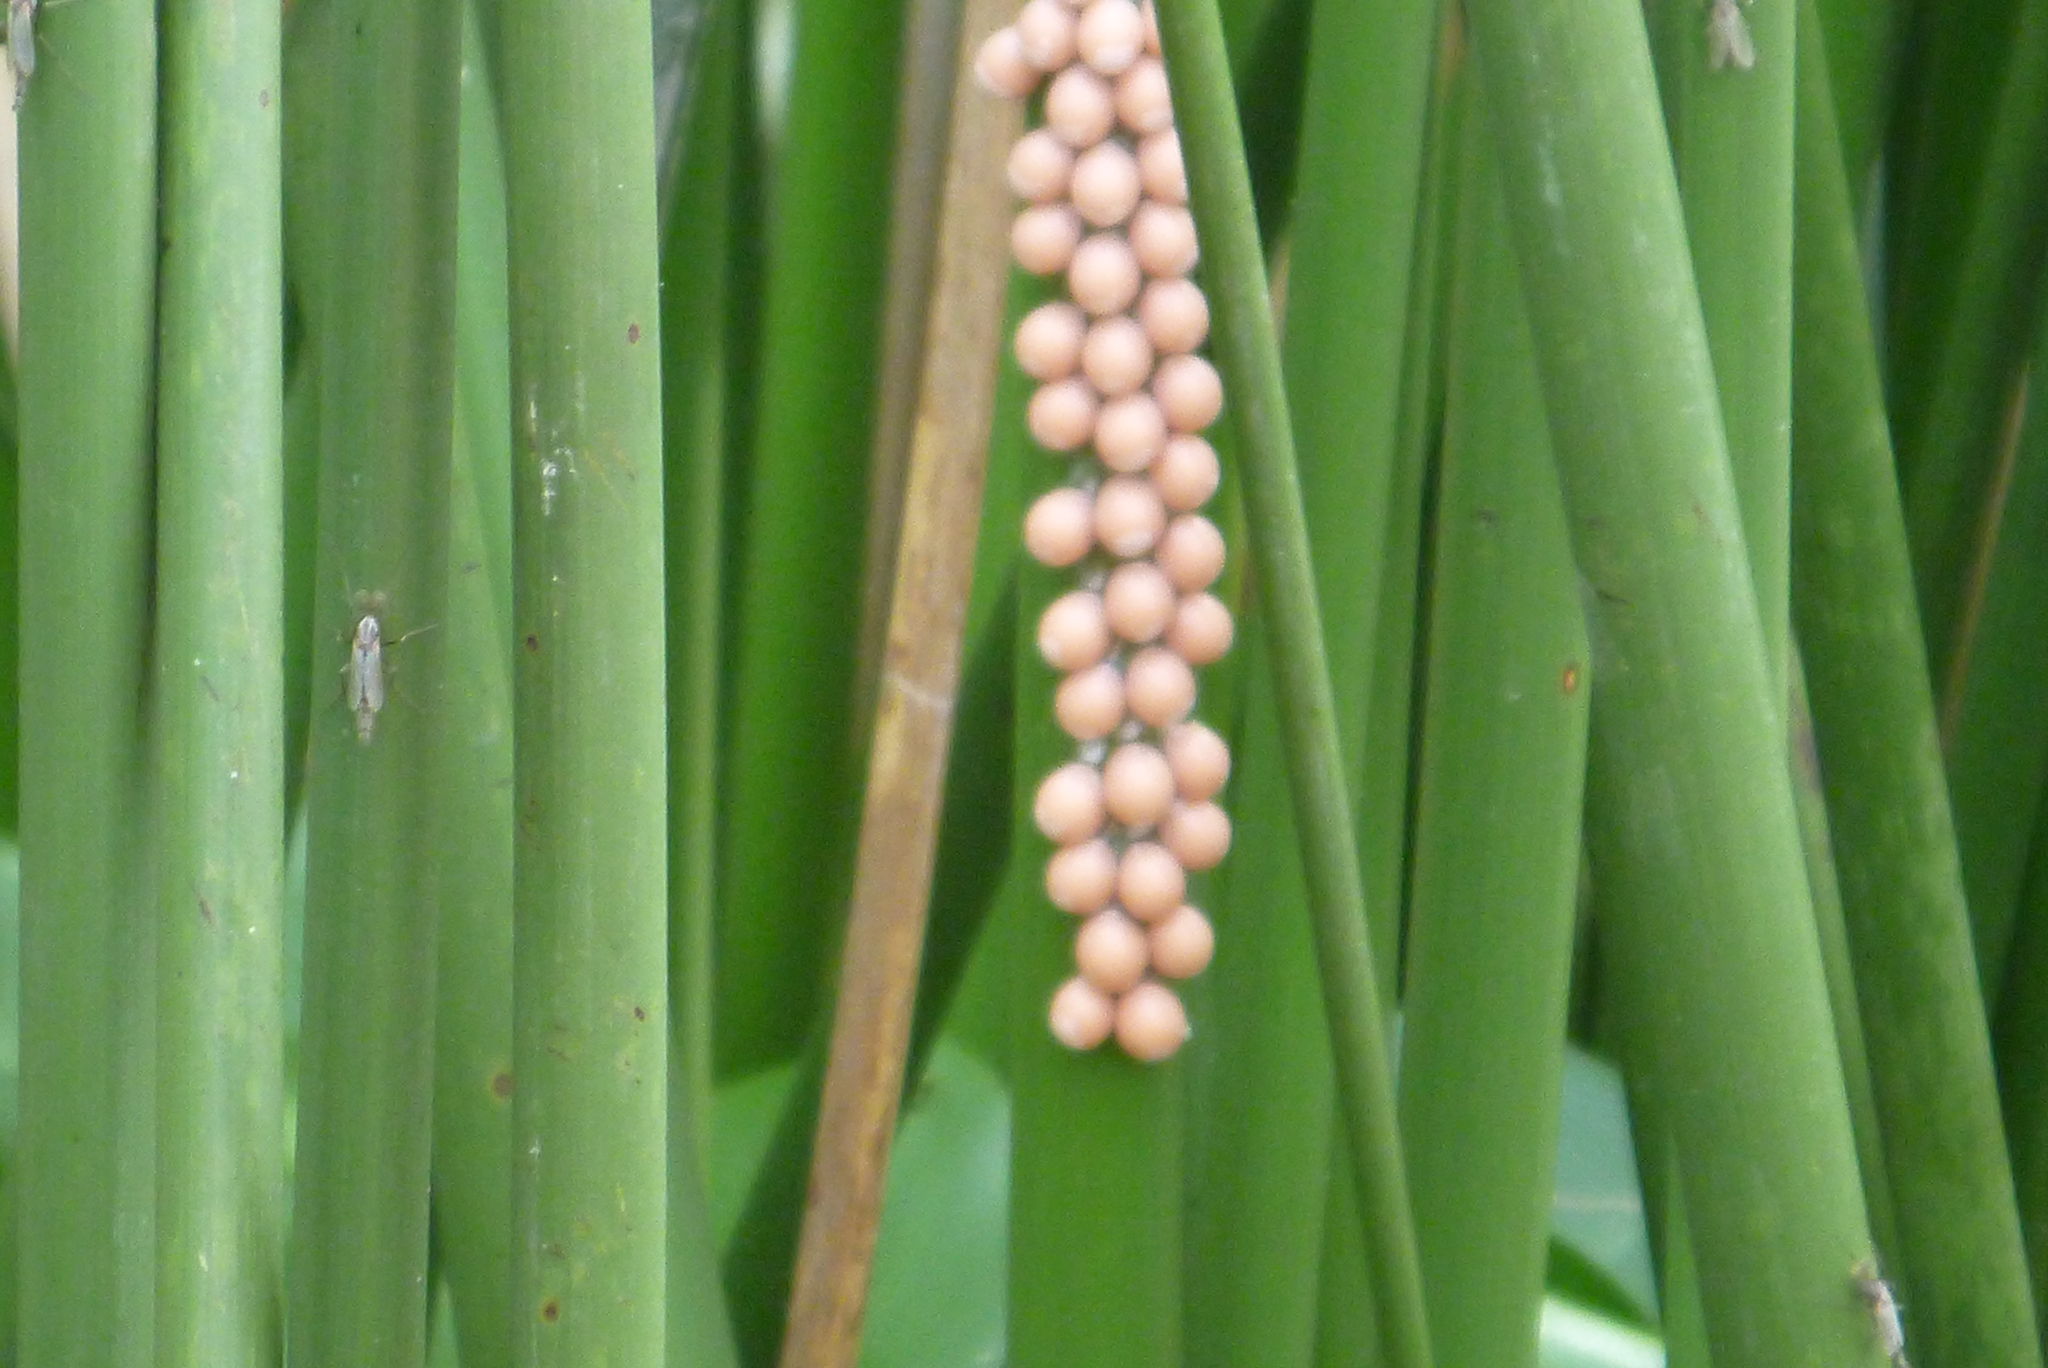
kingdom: Animalia
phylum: Mollusca
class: Gastropoda
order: Architaenioglossa
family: Ampullariidae
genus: Pomacea
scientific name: Pomacea paludosa
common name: Florida applesnail
